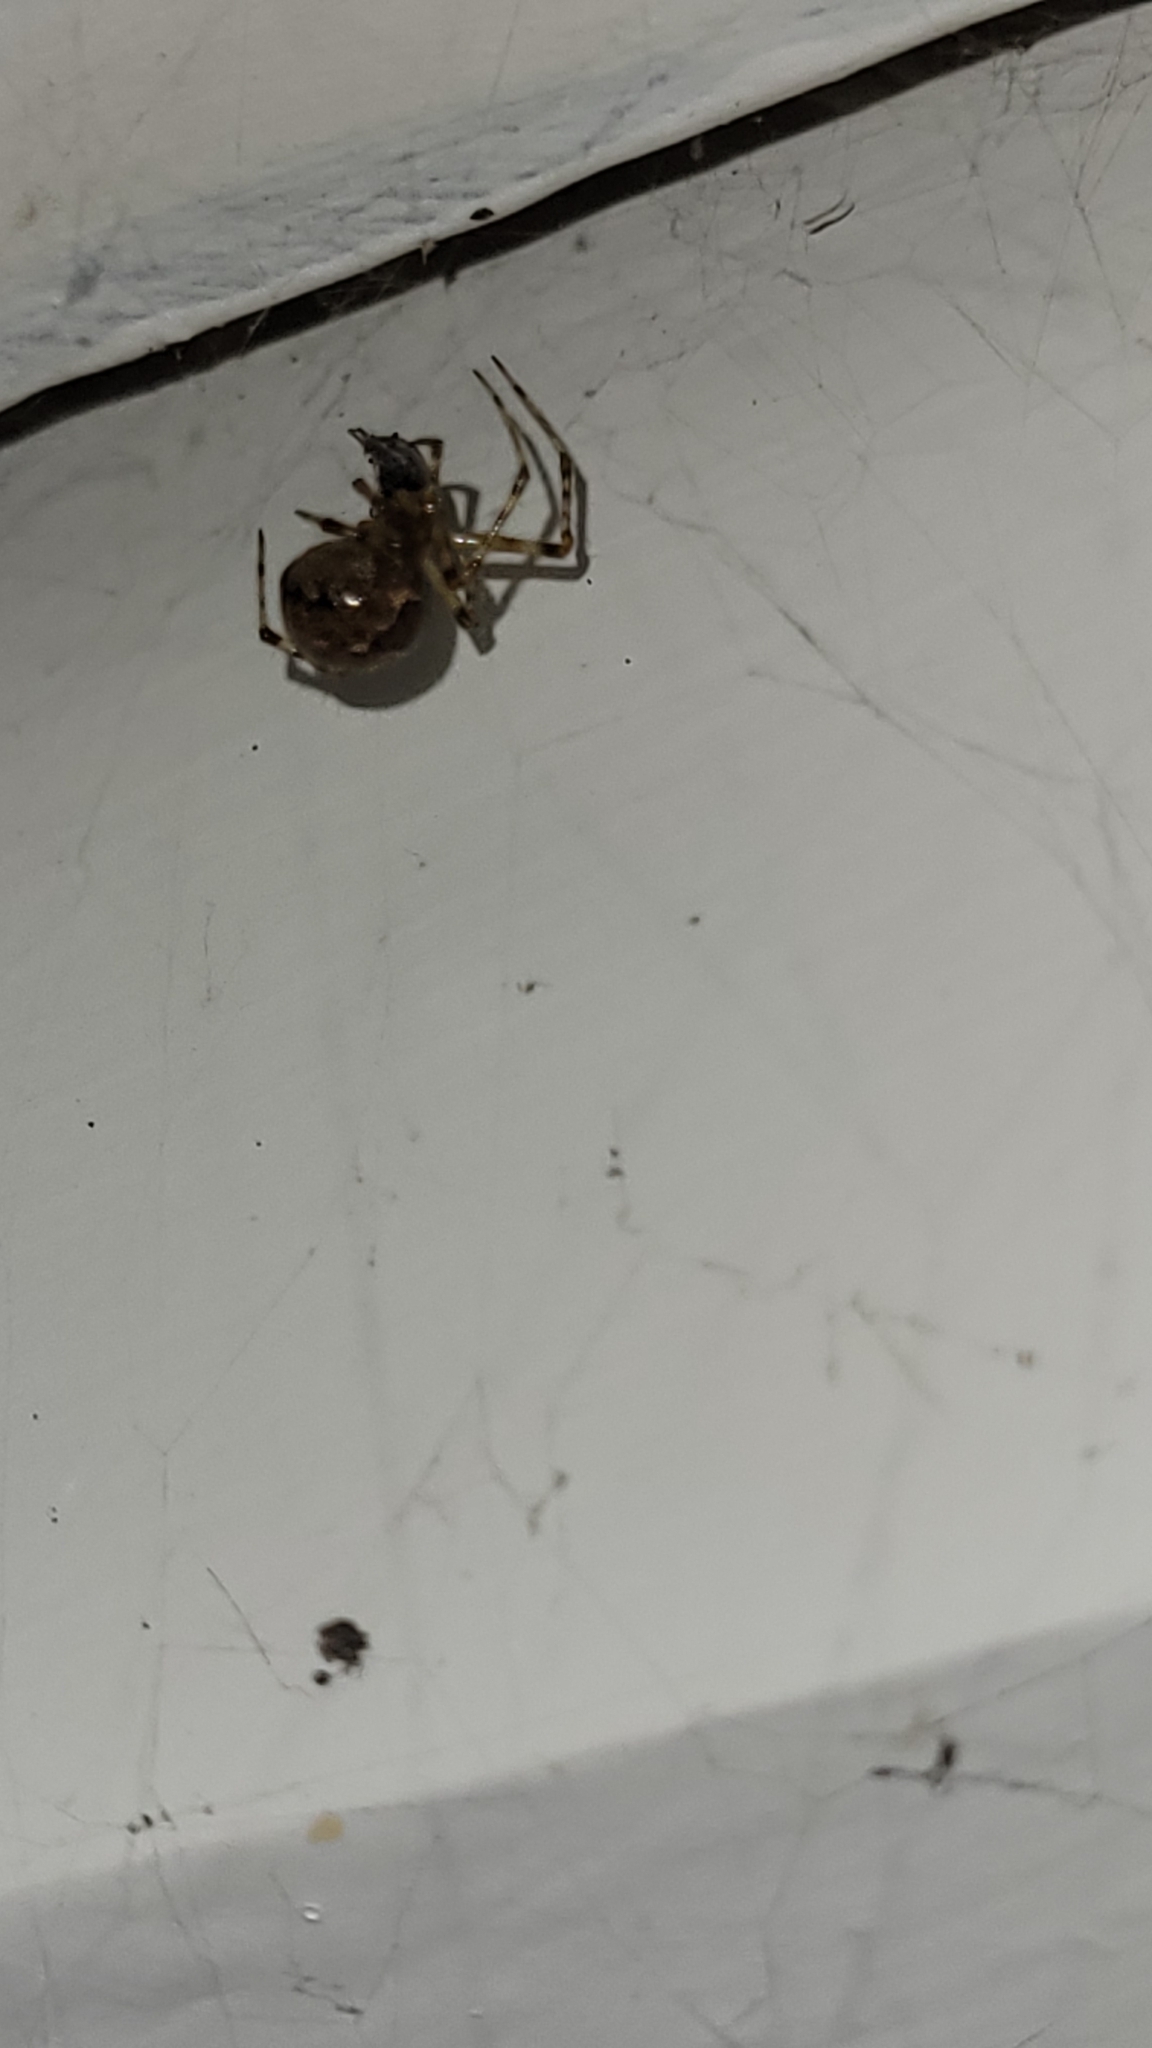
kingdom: Animalia
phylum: Arthropoda
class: Arachnida
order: Araneae
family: Theridiidae
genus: Cryptachaea
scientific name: Cryptachaea veruculata
